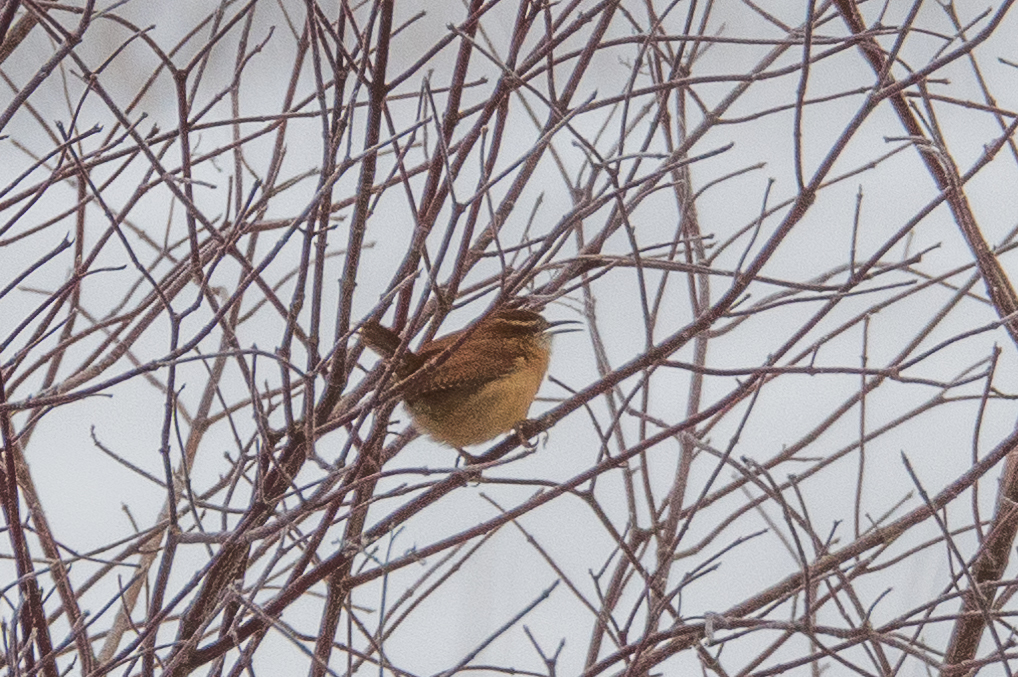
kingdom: Animalia
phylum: Chordata
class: Aves
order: Passeriformes
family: Troglodytidae
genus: Thryothorus
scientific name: Thryothorus ludovicianus
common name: Carolina wren
